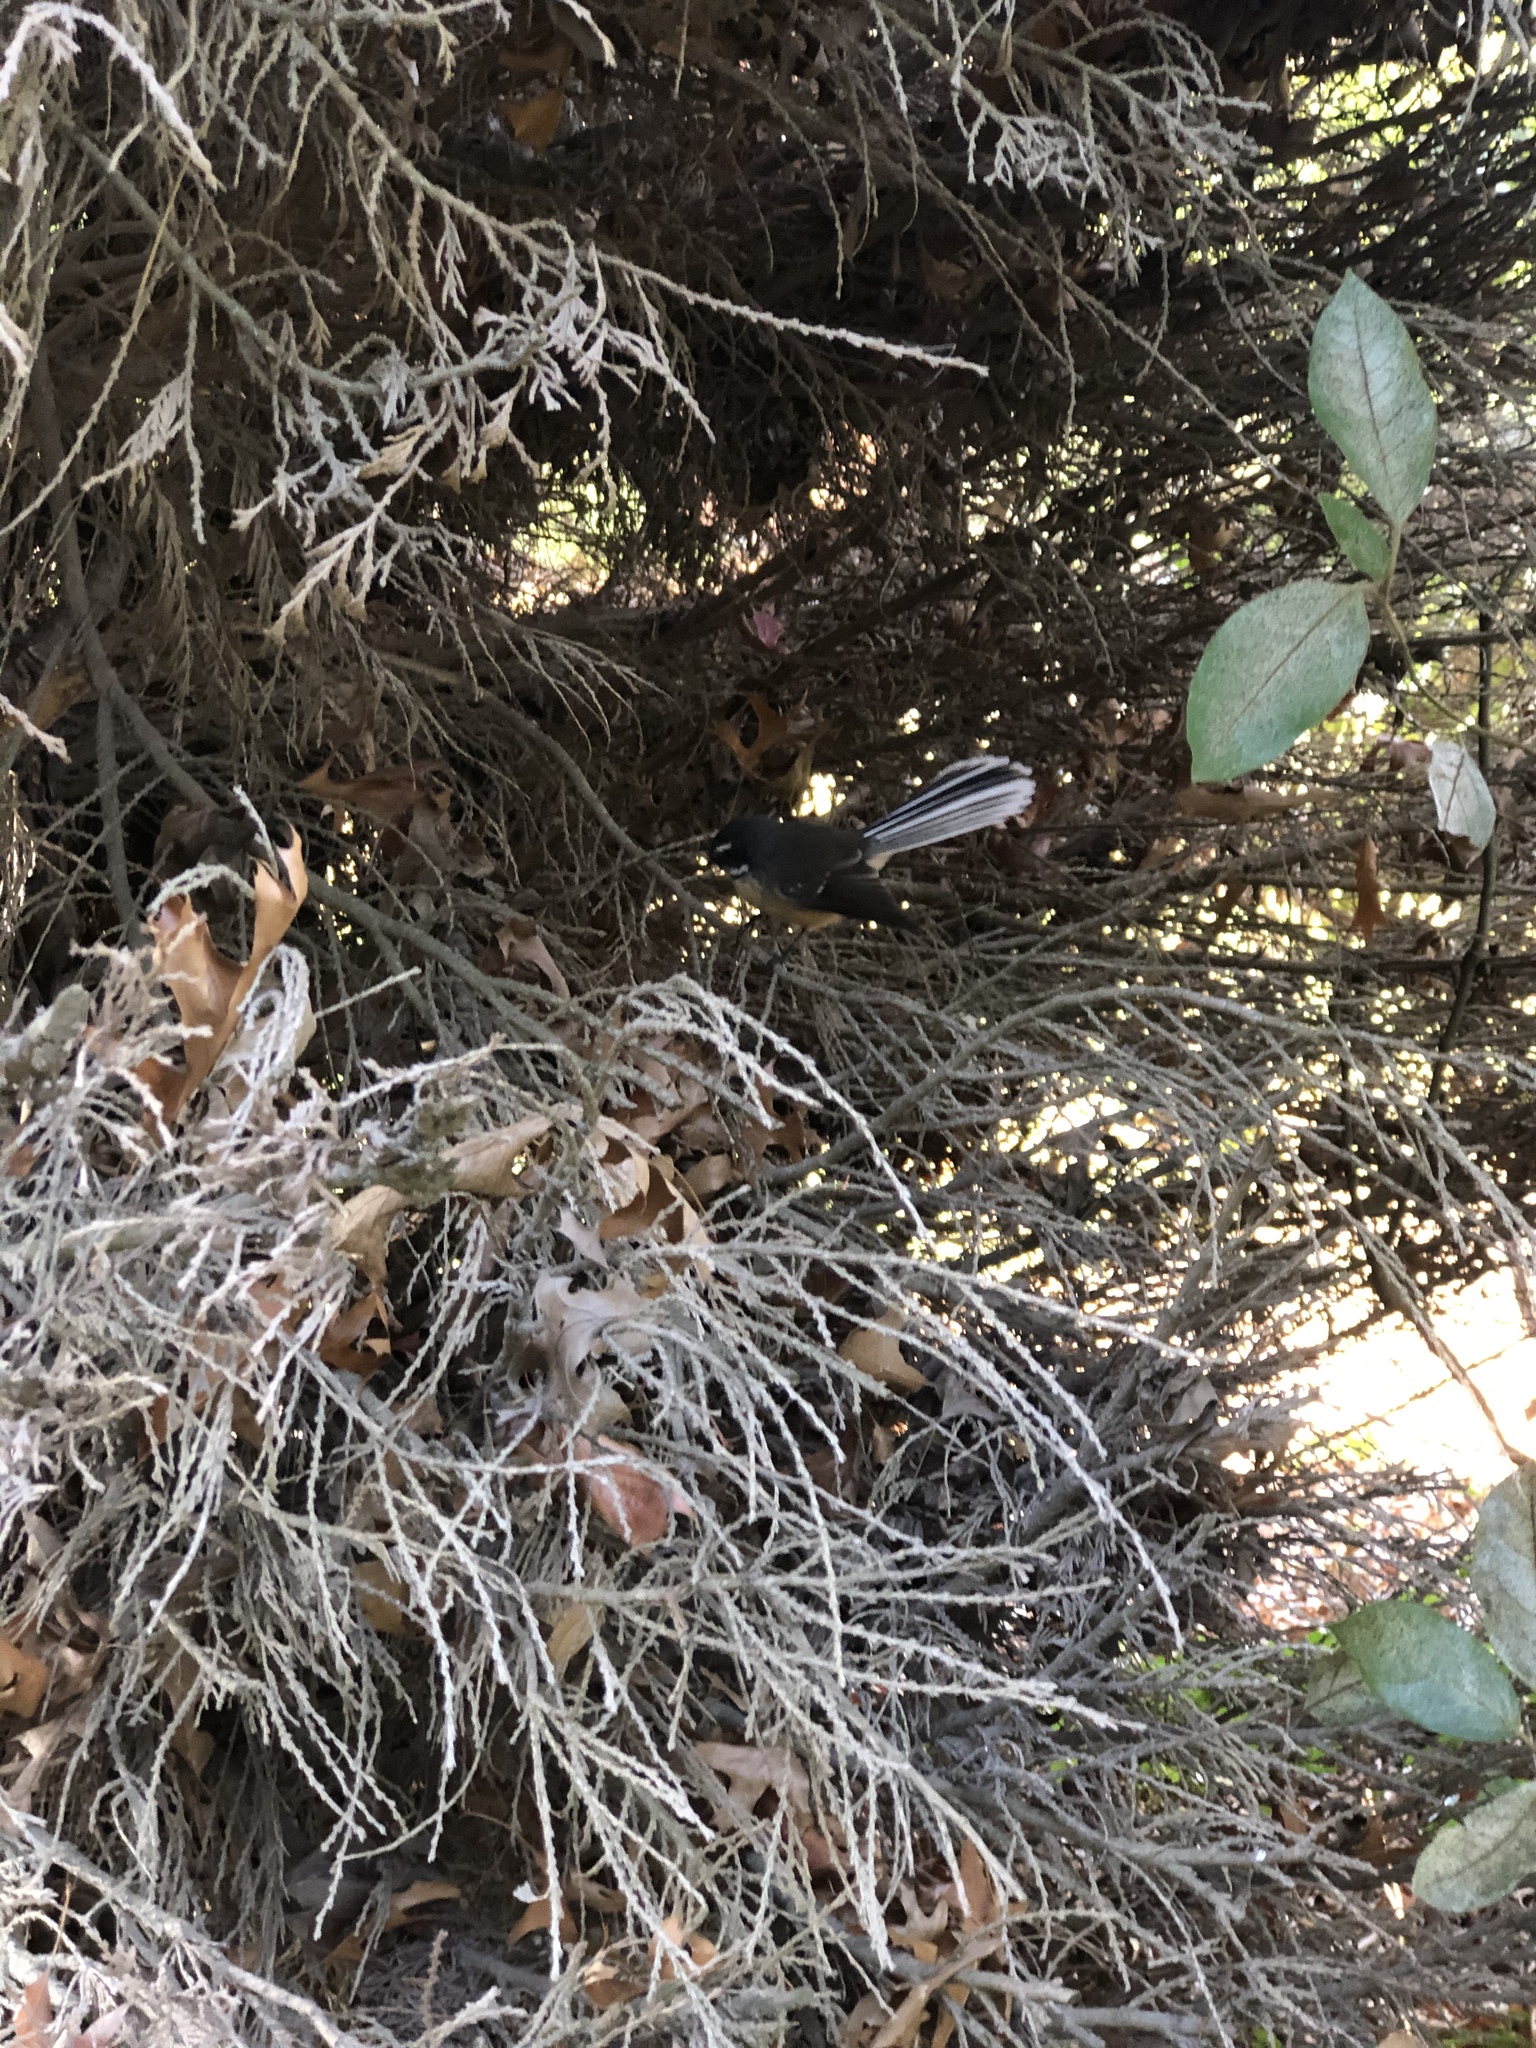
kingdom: Animalia
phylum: Chordata
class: Aves
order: Passeriformes
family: Rhipiduridae
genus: Rhipidura
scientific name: Rhipidura fuliginosa
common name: New zealand fantail
